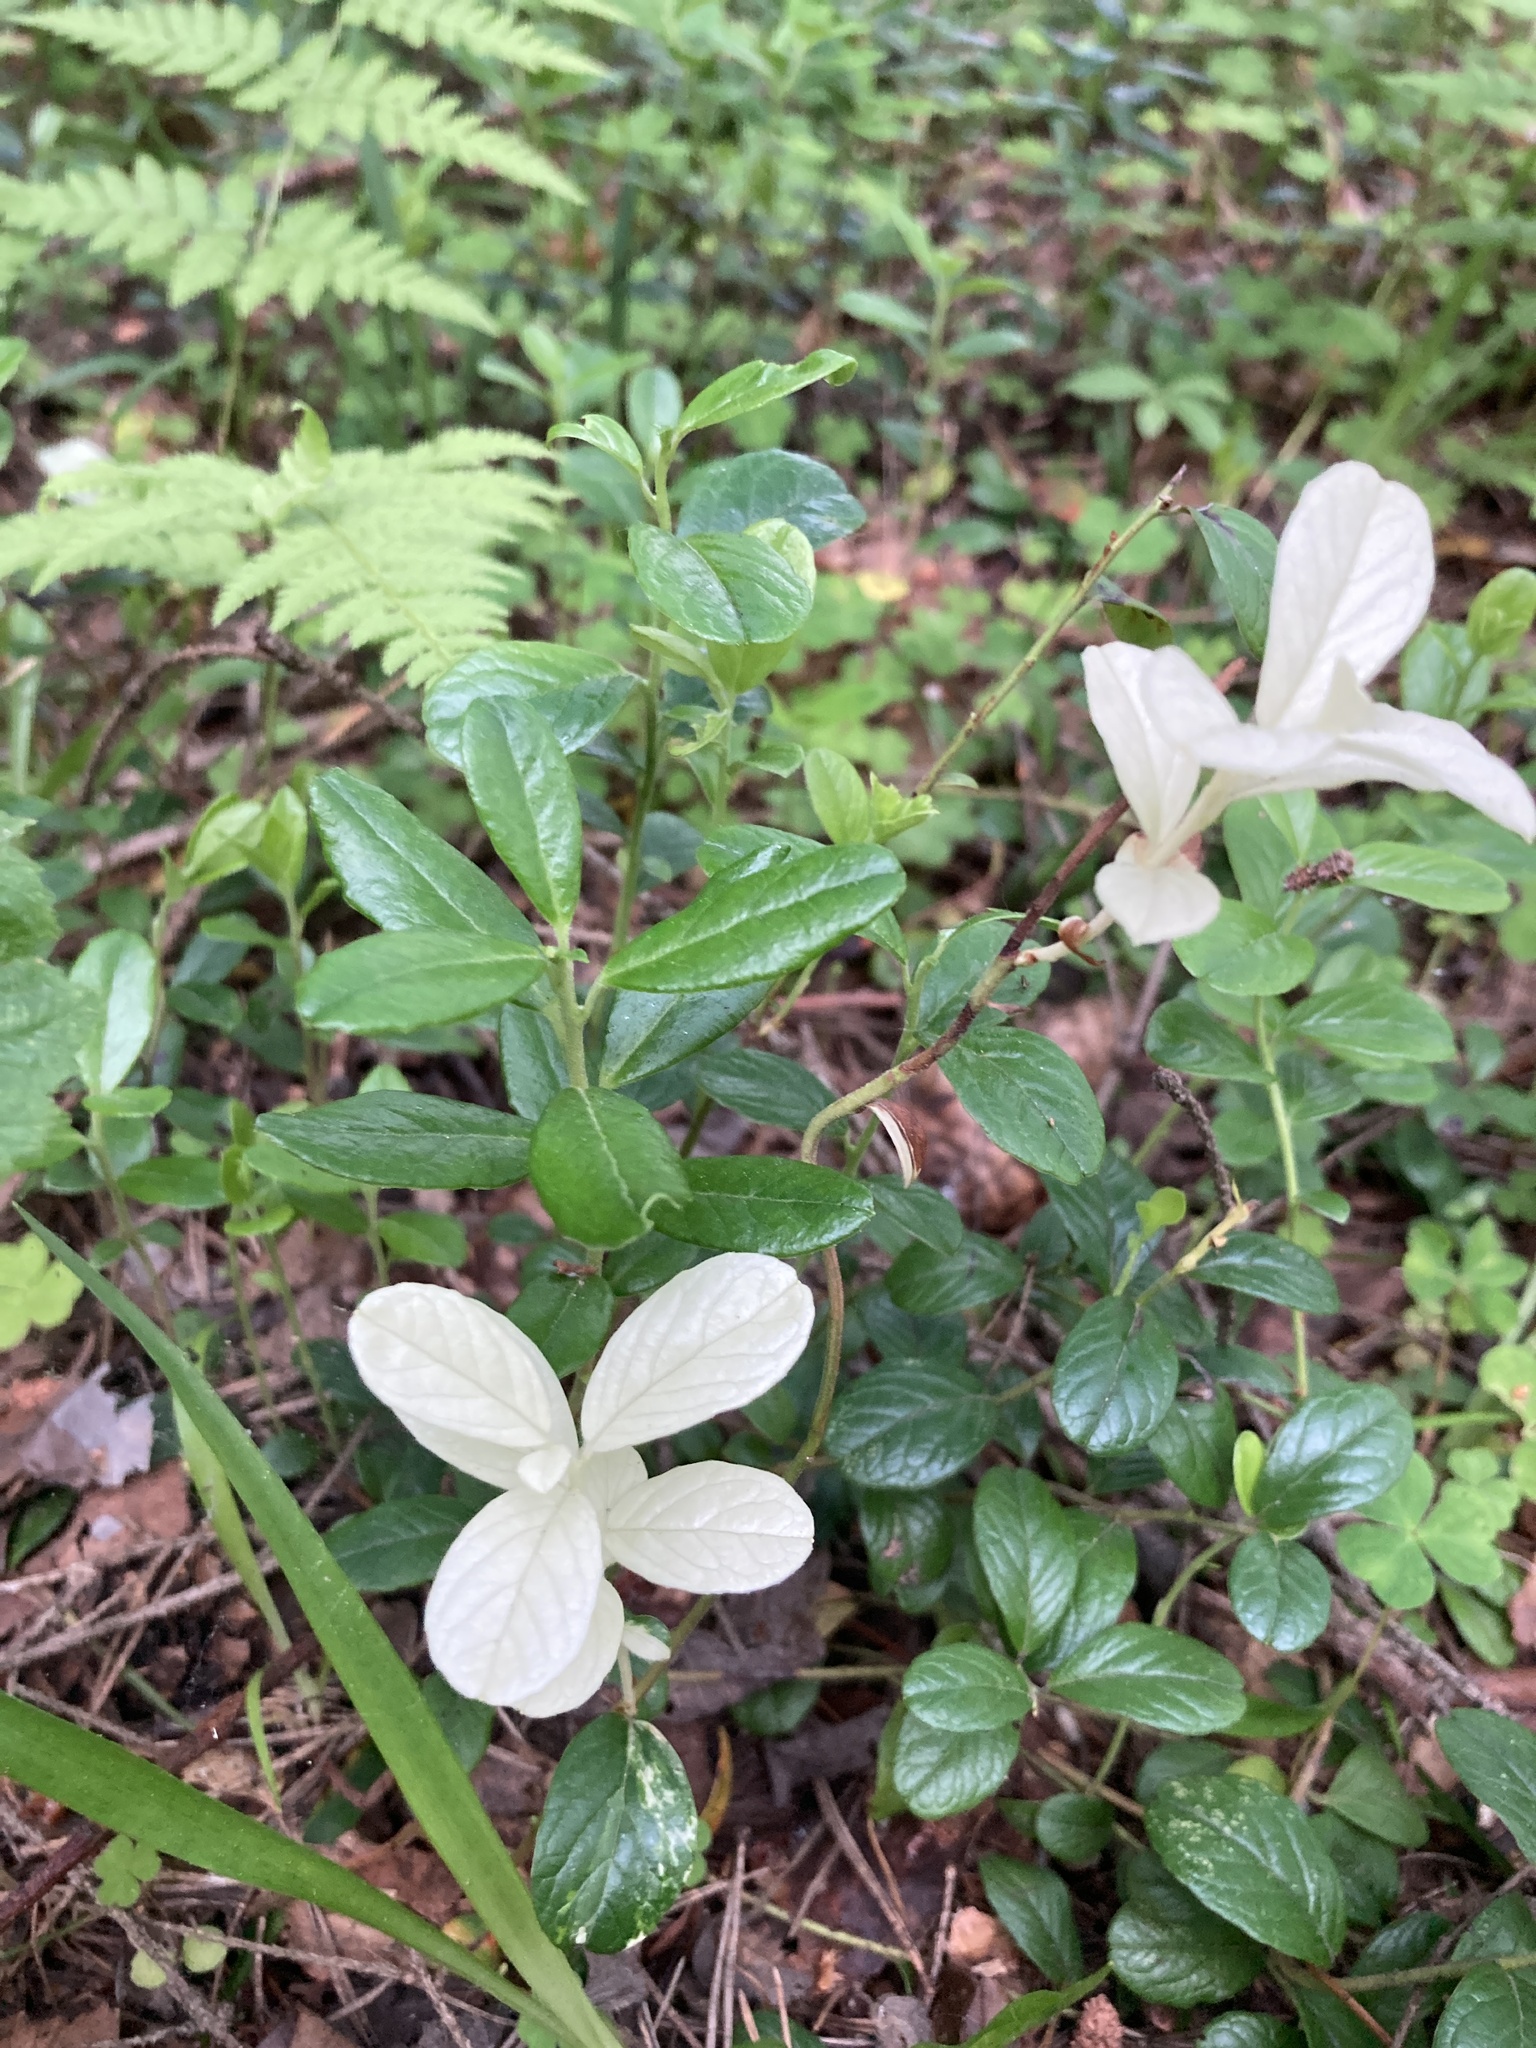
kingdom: Plantae
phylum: Tracheophyta
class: Magnoliopsida
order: Ericales
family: Ericaceae
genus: Vaccinium
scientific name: Vaccinium vitis-idaea
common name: Cowberry
